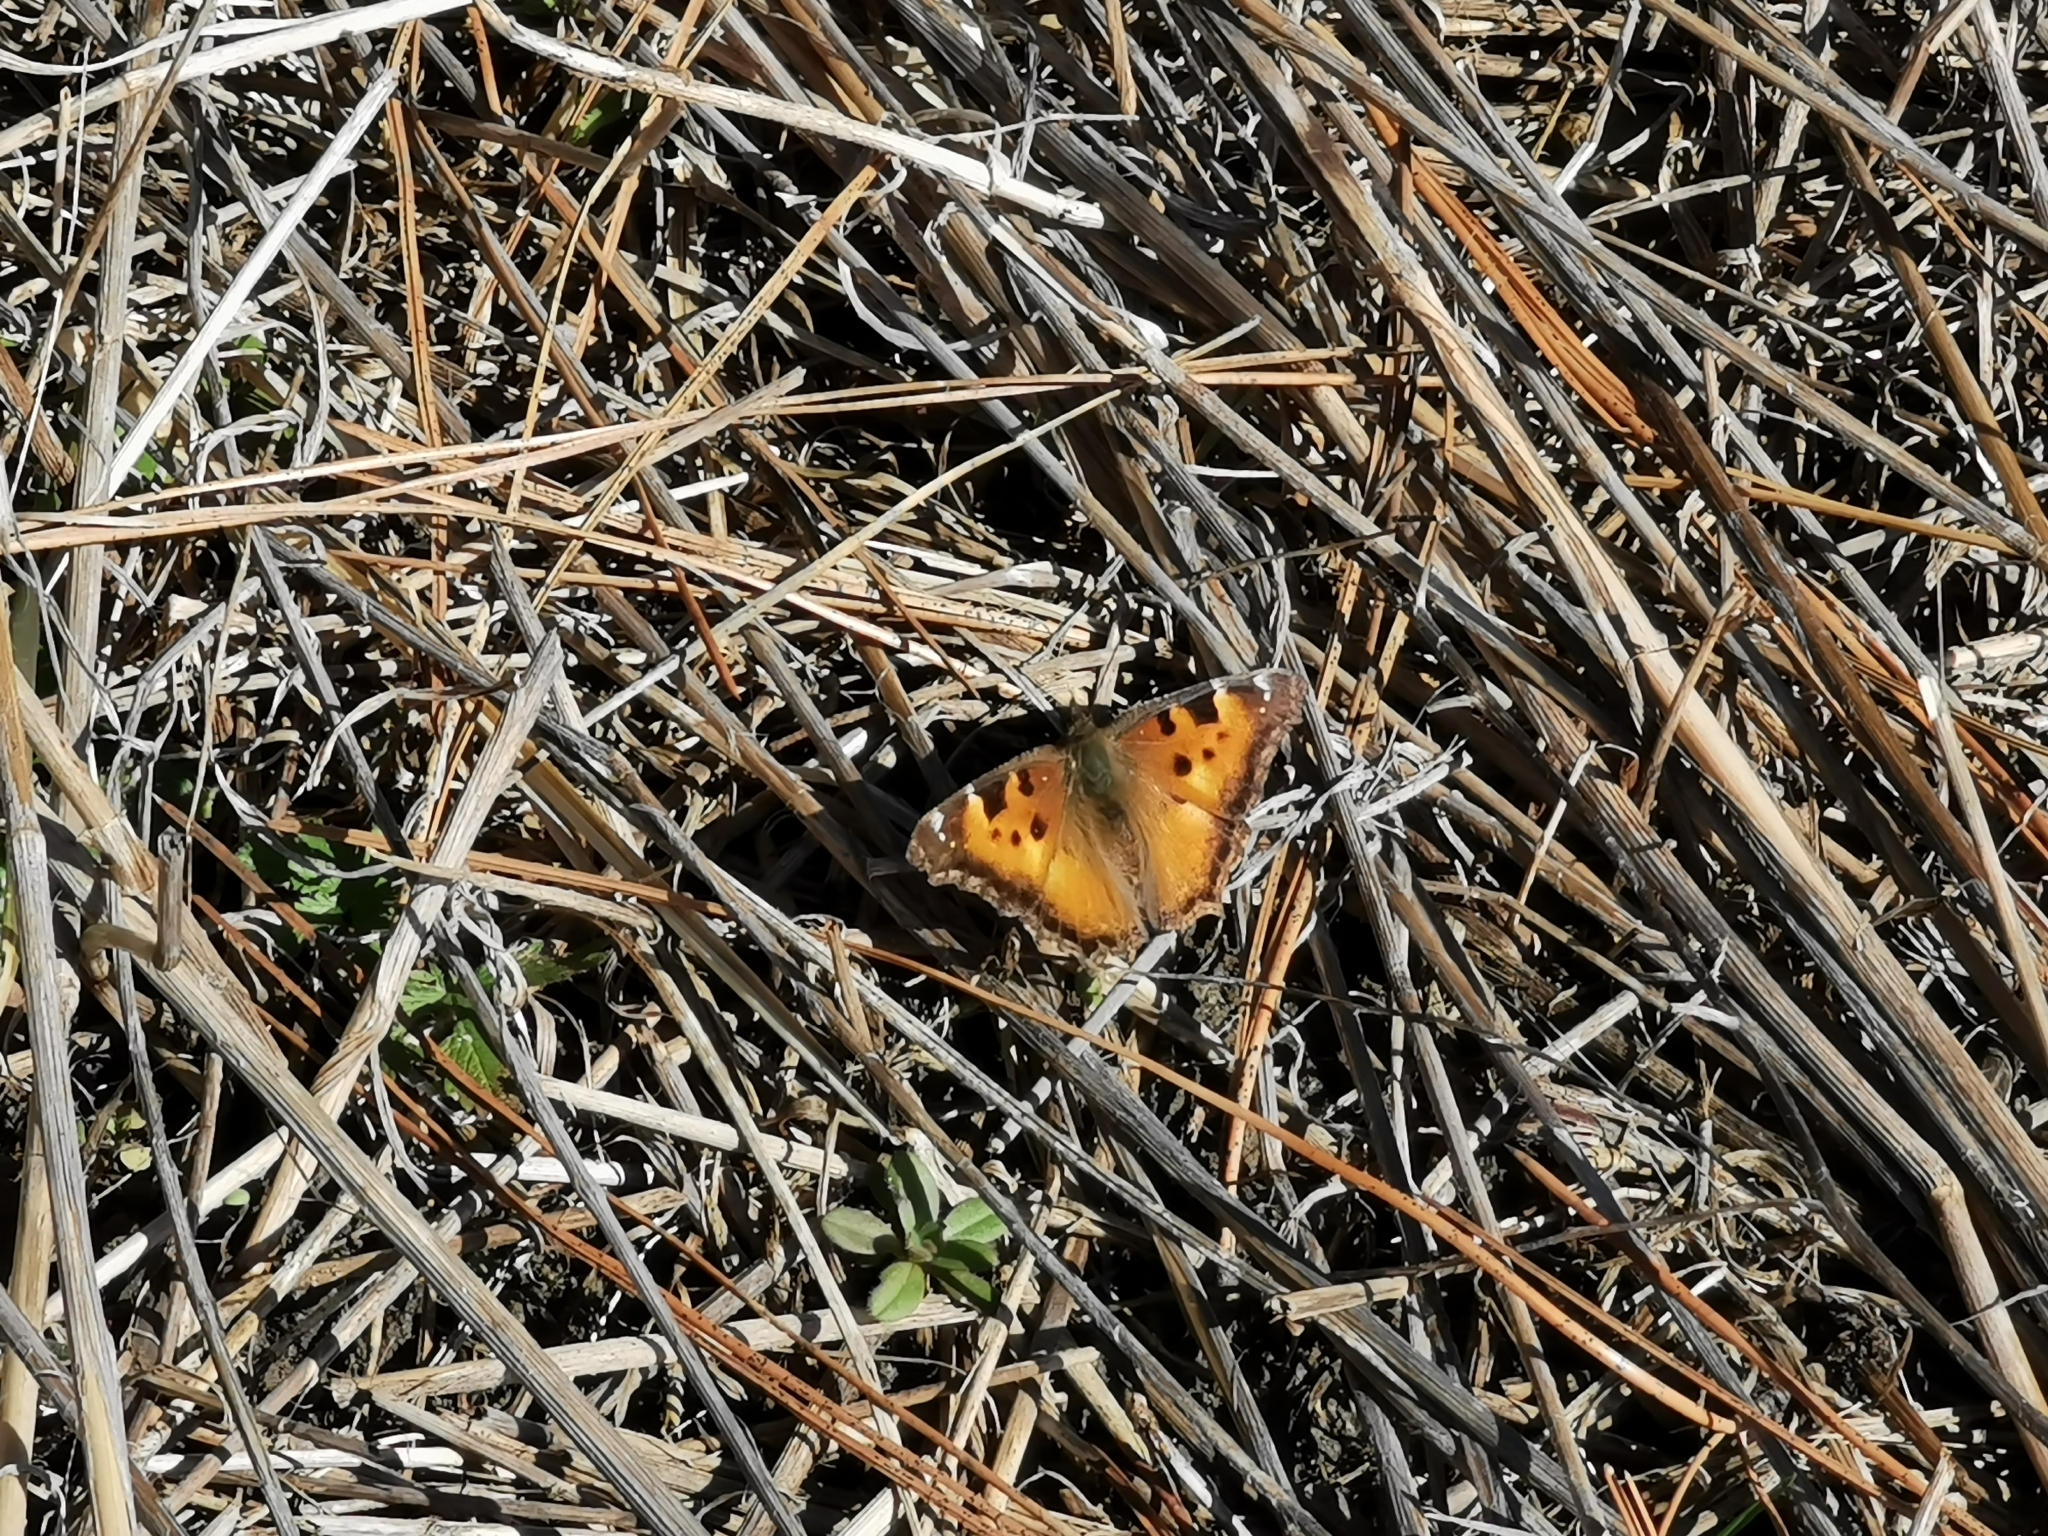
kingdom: Animalia
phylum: Arthropoda
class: Insecta
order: Lepidoptera
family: Nymphalidae
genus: Nymphalis
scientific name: Nymphalis californica
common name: California tortoiseshell
